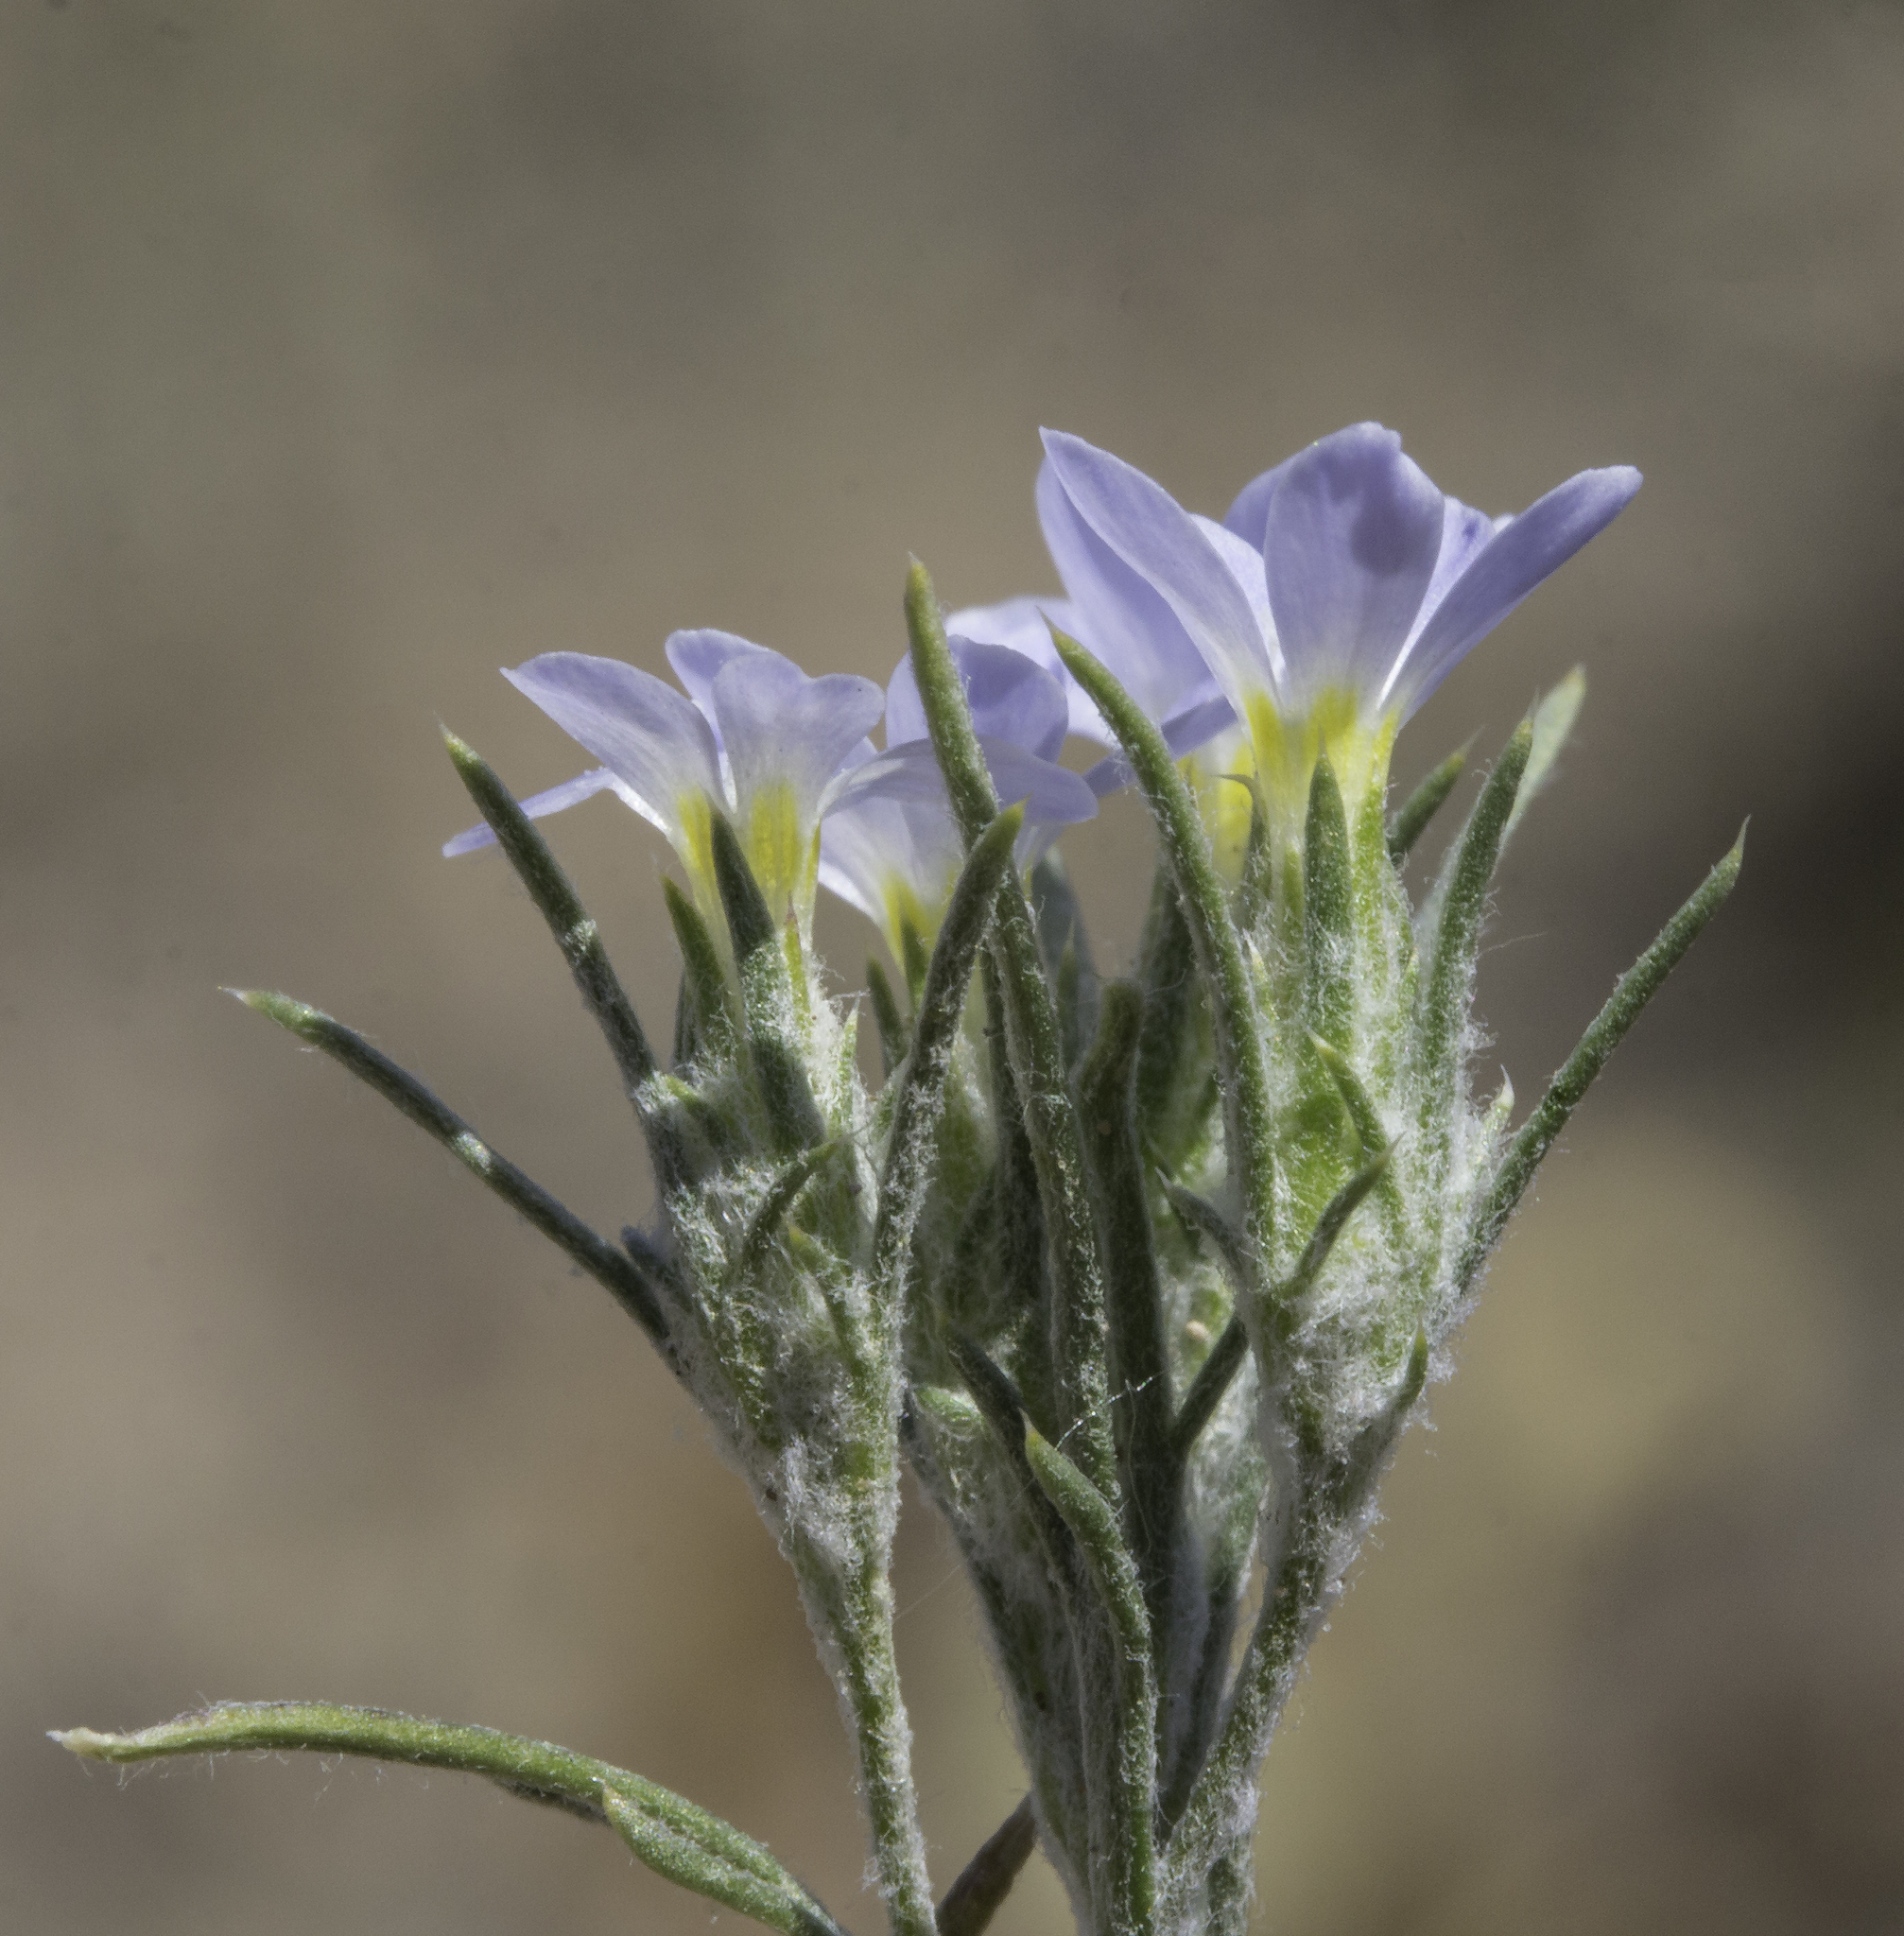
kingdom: Plantae
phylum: Tracheophyta
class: Magnoliopsida
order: Ericales
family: Polemoniaceae
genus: Eriastrum
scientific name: Eriastrum diffusum
